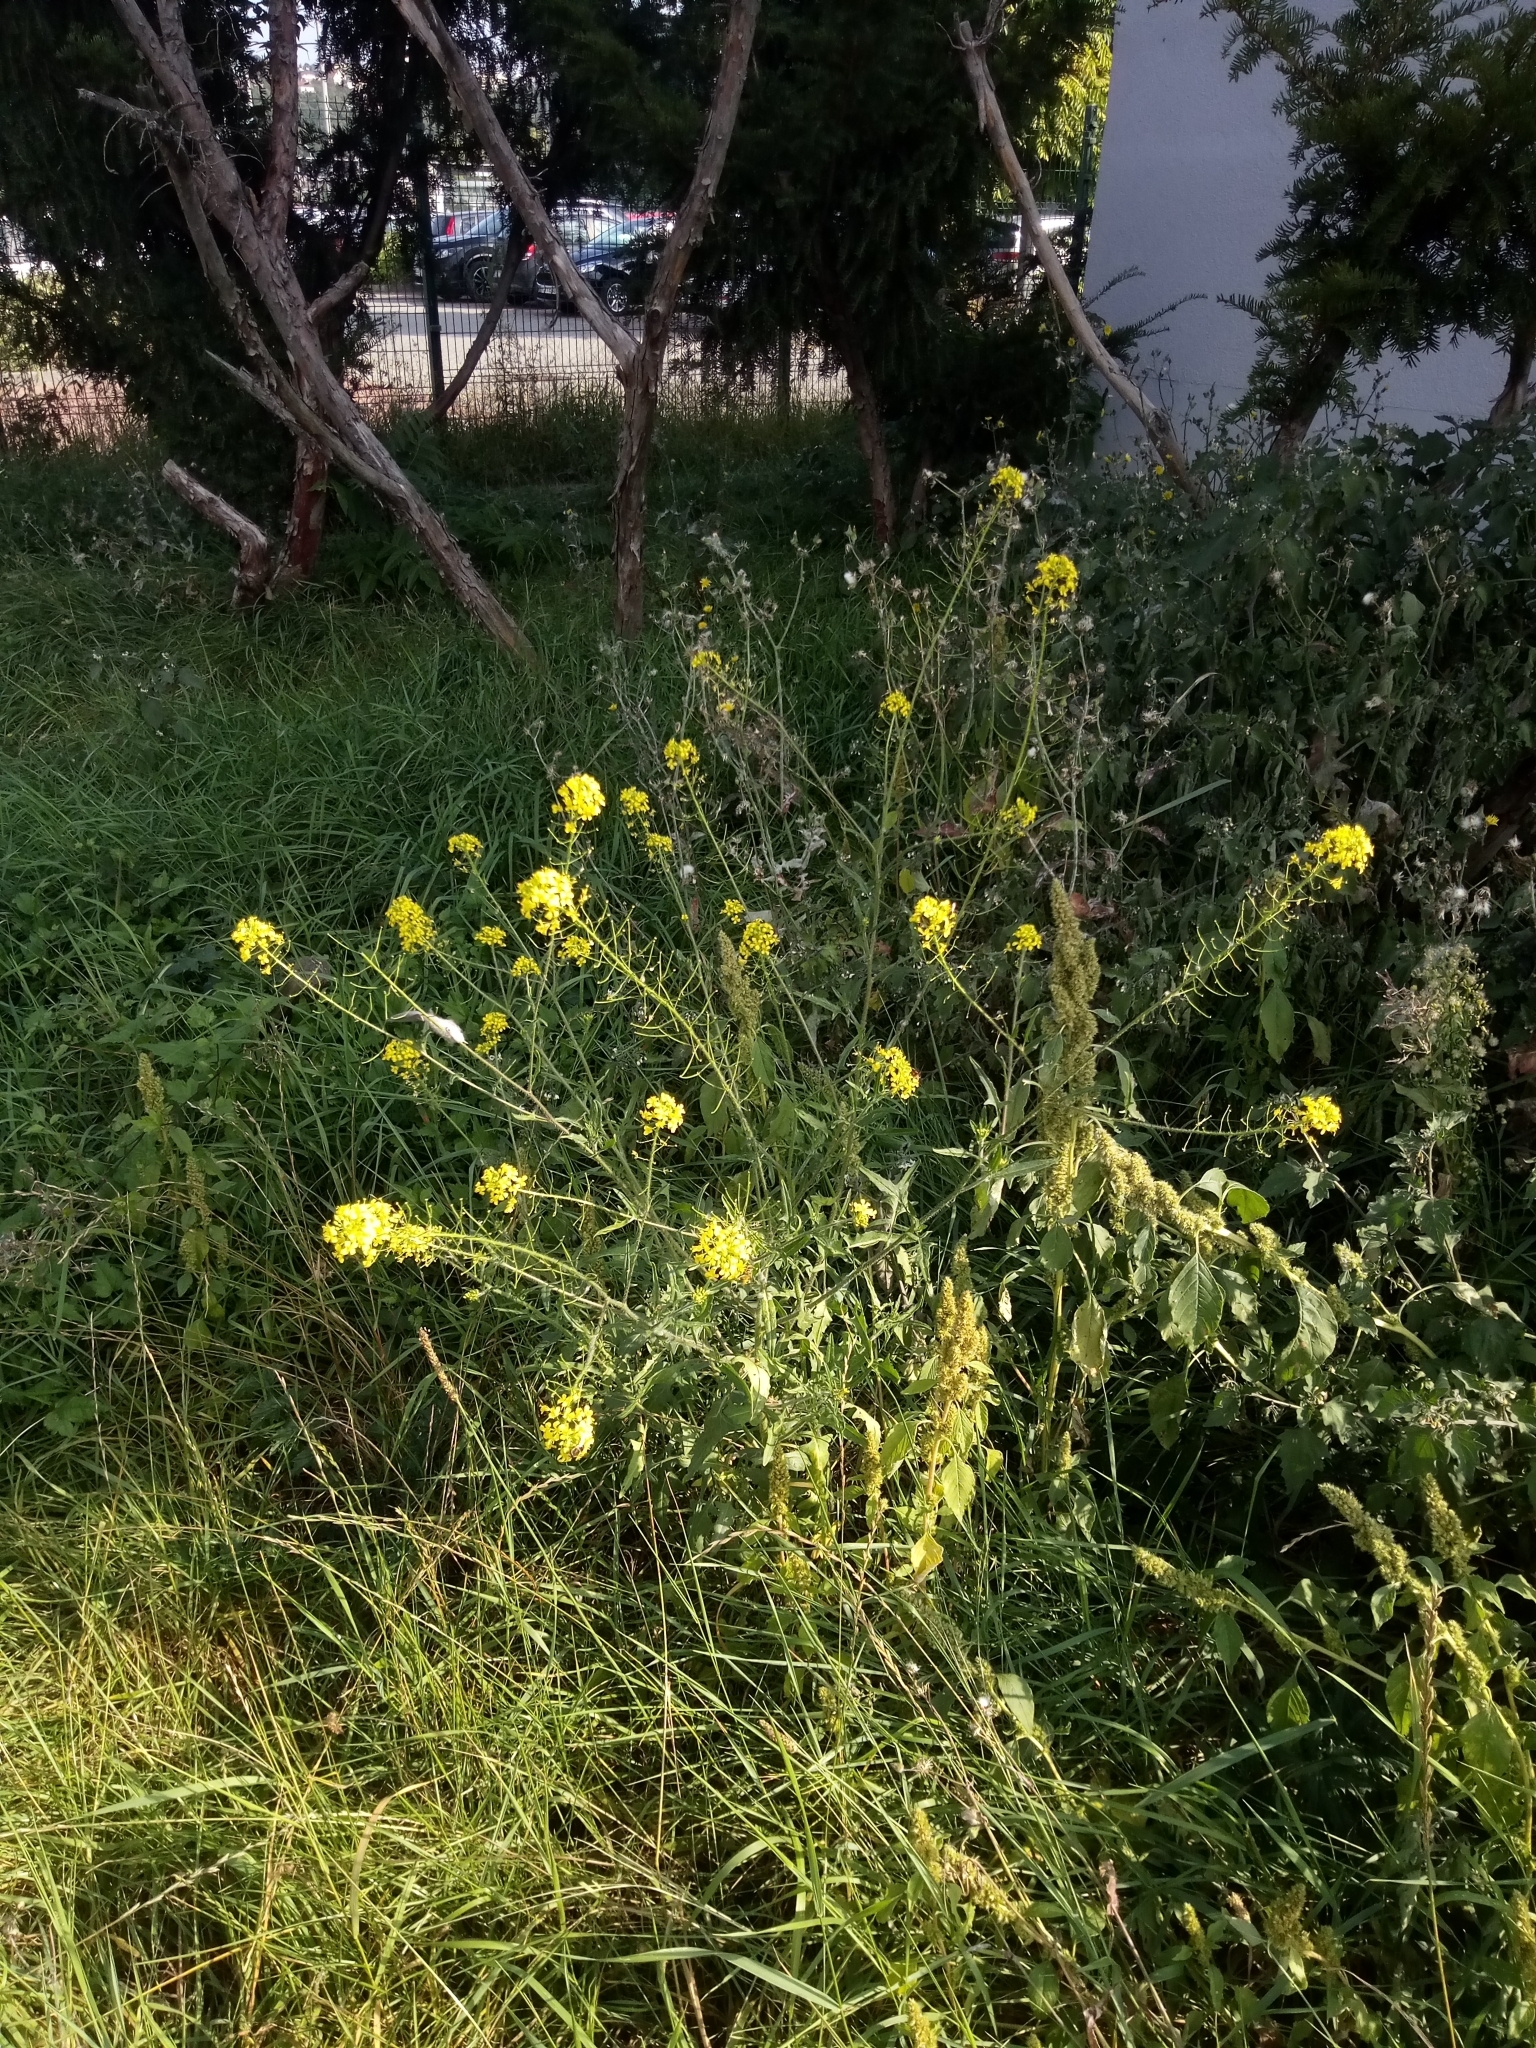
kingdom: Plantae
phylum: Tracheophyta
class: Magnoliopsida
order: Brassicales
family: Brassicaceae
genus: Sisymbrium
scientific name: Sisymbrium loeselii
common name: False london-rocket
